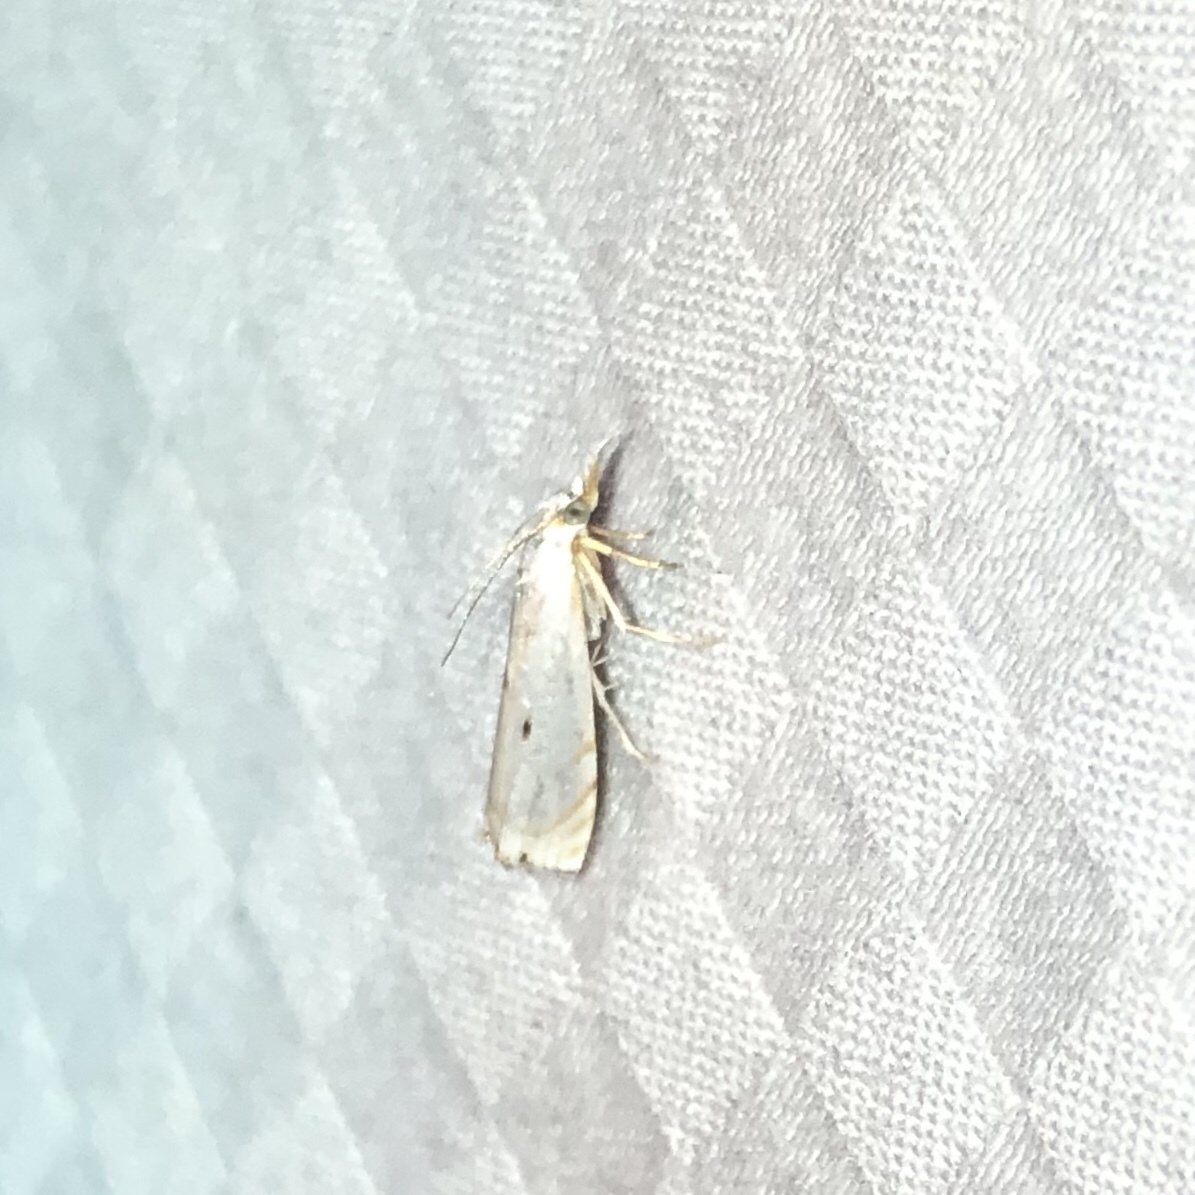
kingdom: Animalia
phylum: Arthropoda
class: Insecta
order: Lepidoptera
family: Crambidae
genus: Microcrambus
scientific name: Microcrambus biguttellus
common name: Gold-stripe grass-veneer moth
